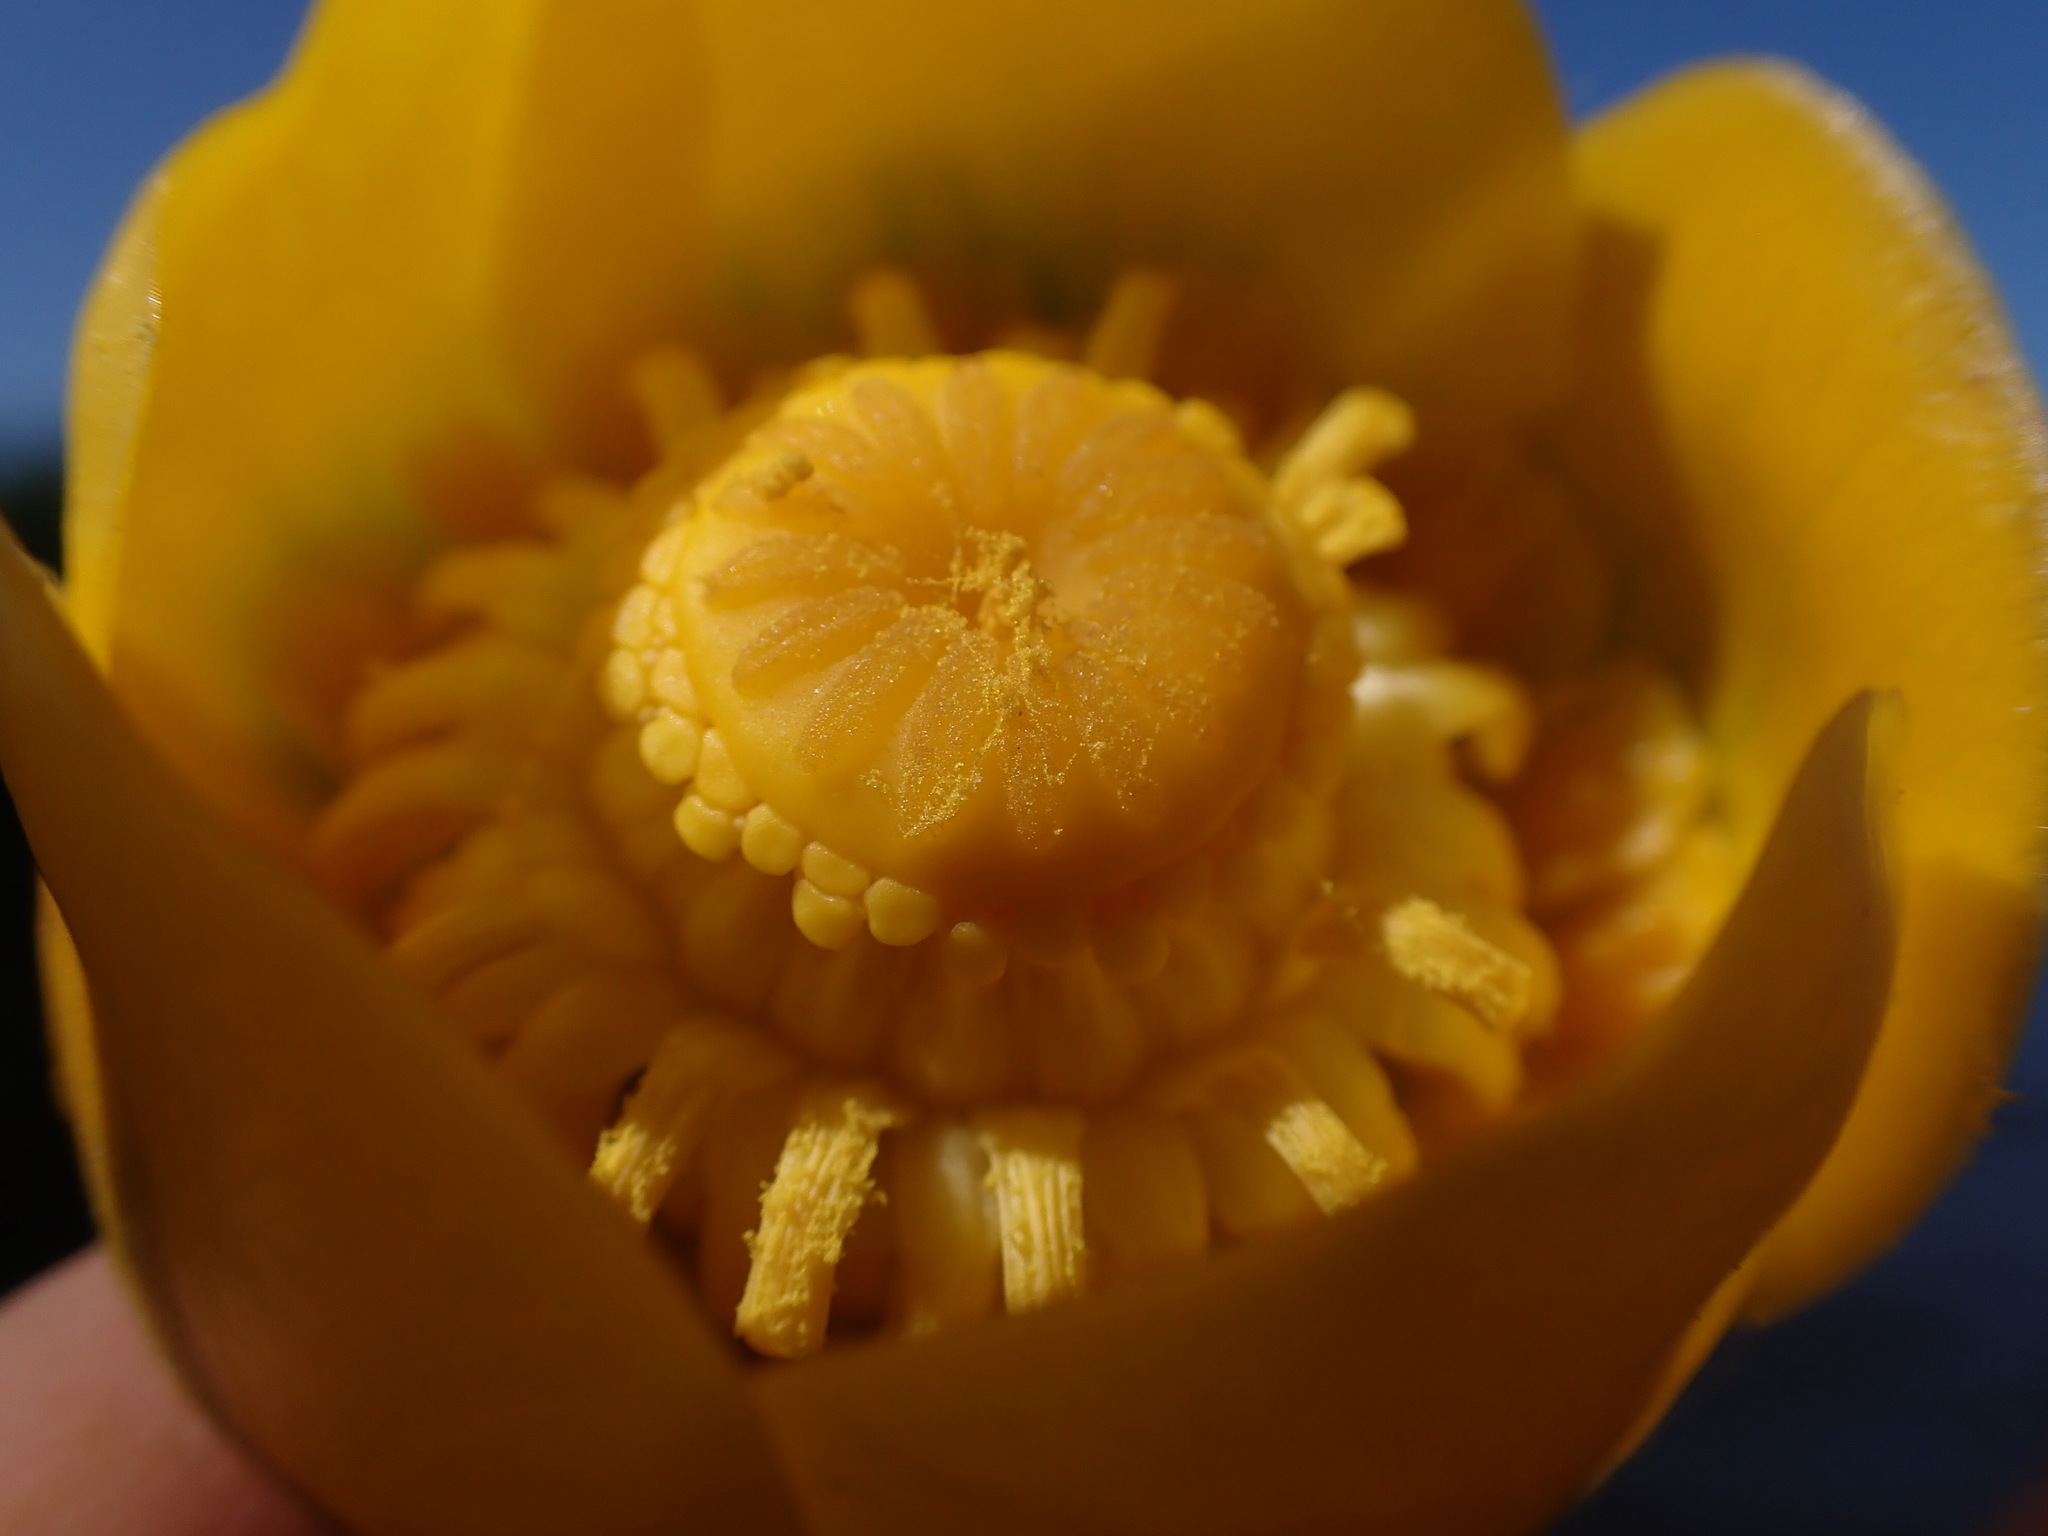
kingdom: Plantae
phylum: Tracheophyta
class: Magnoliopsida
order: Nymphaeales
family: Nymphaeaceae
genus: Nuphar
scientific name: Nuphar lutea
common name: Yellow water-lily
